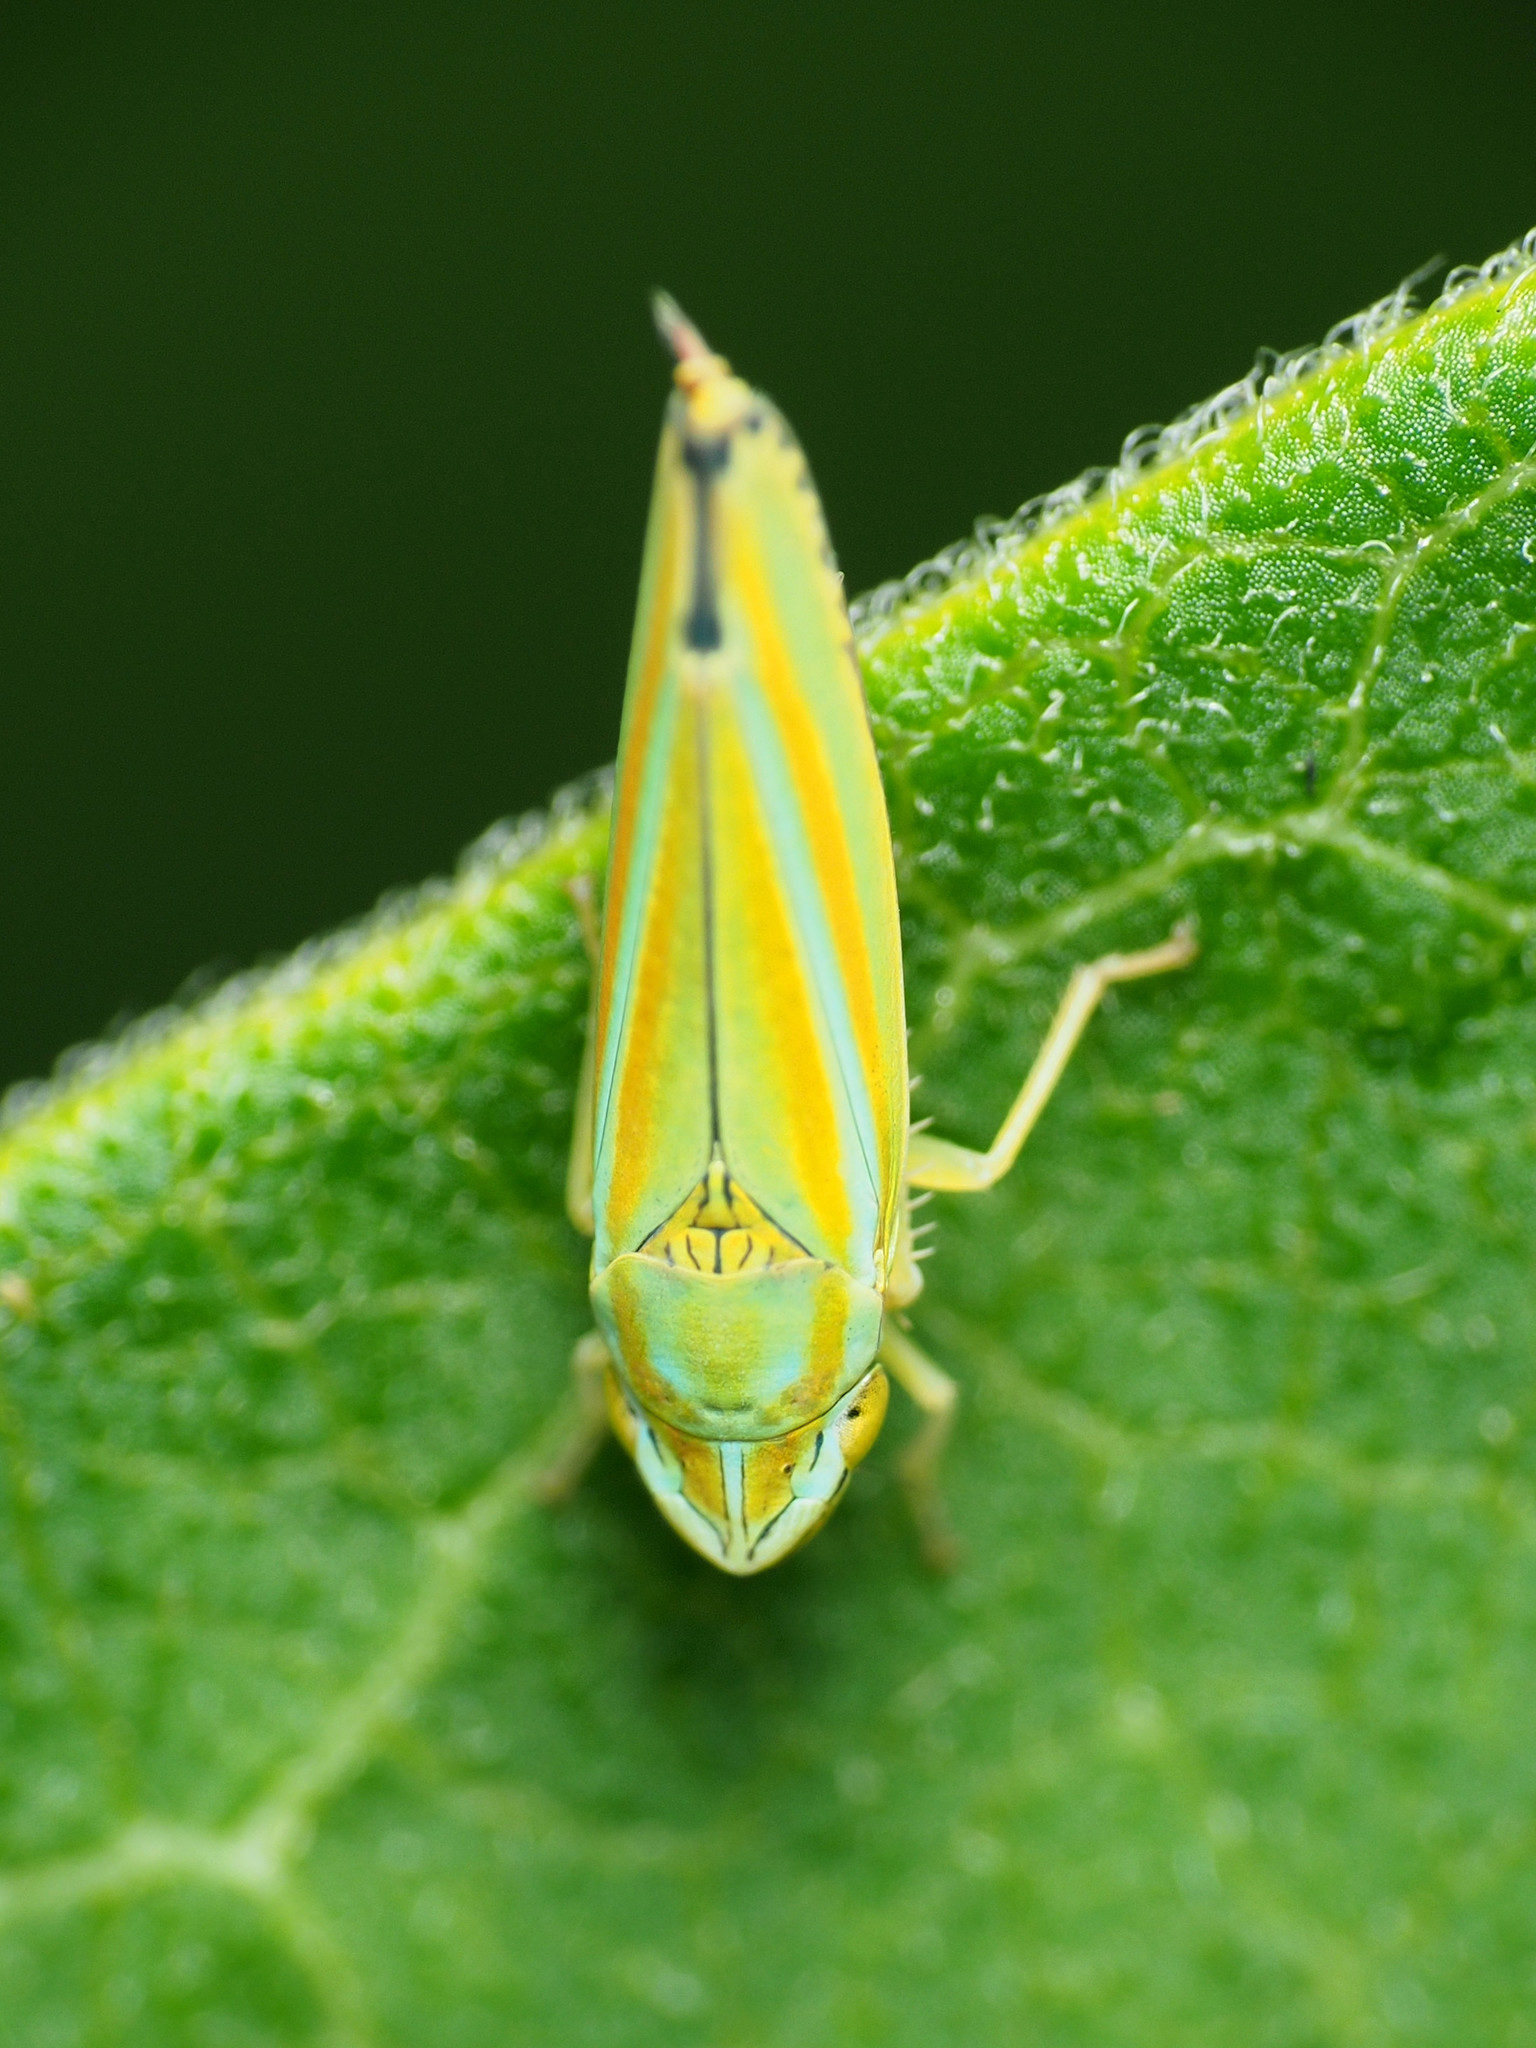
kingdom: Animalia
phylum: Arthropoda
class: Insecta
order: Hemiptera
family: Cicadellidae
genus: Graphocephala
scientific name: Graphocephala versuta
